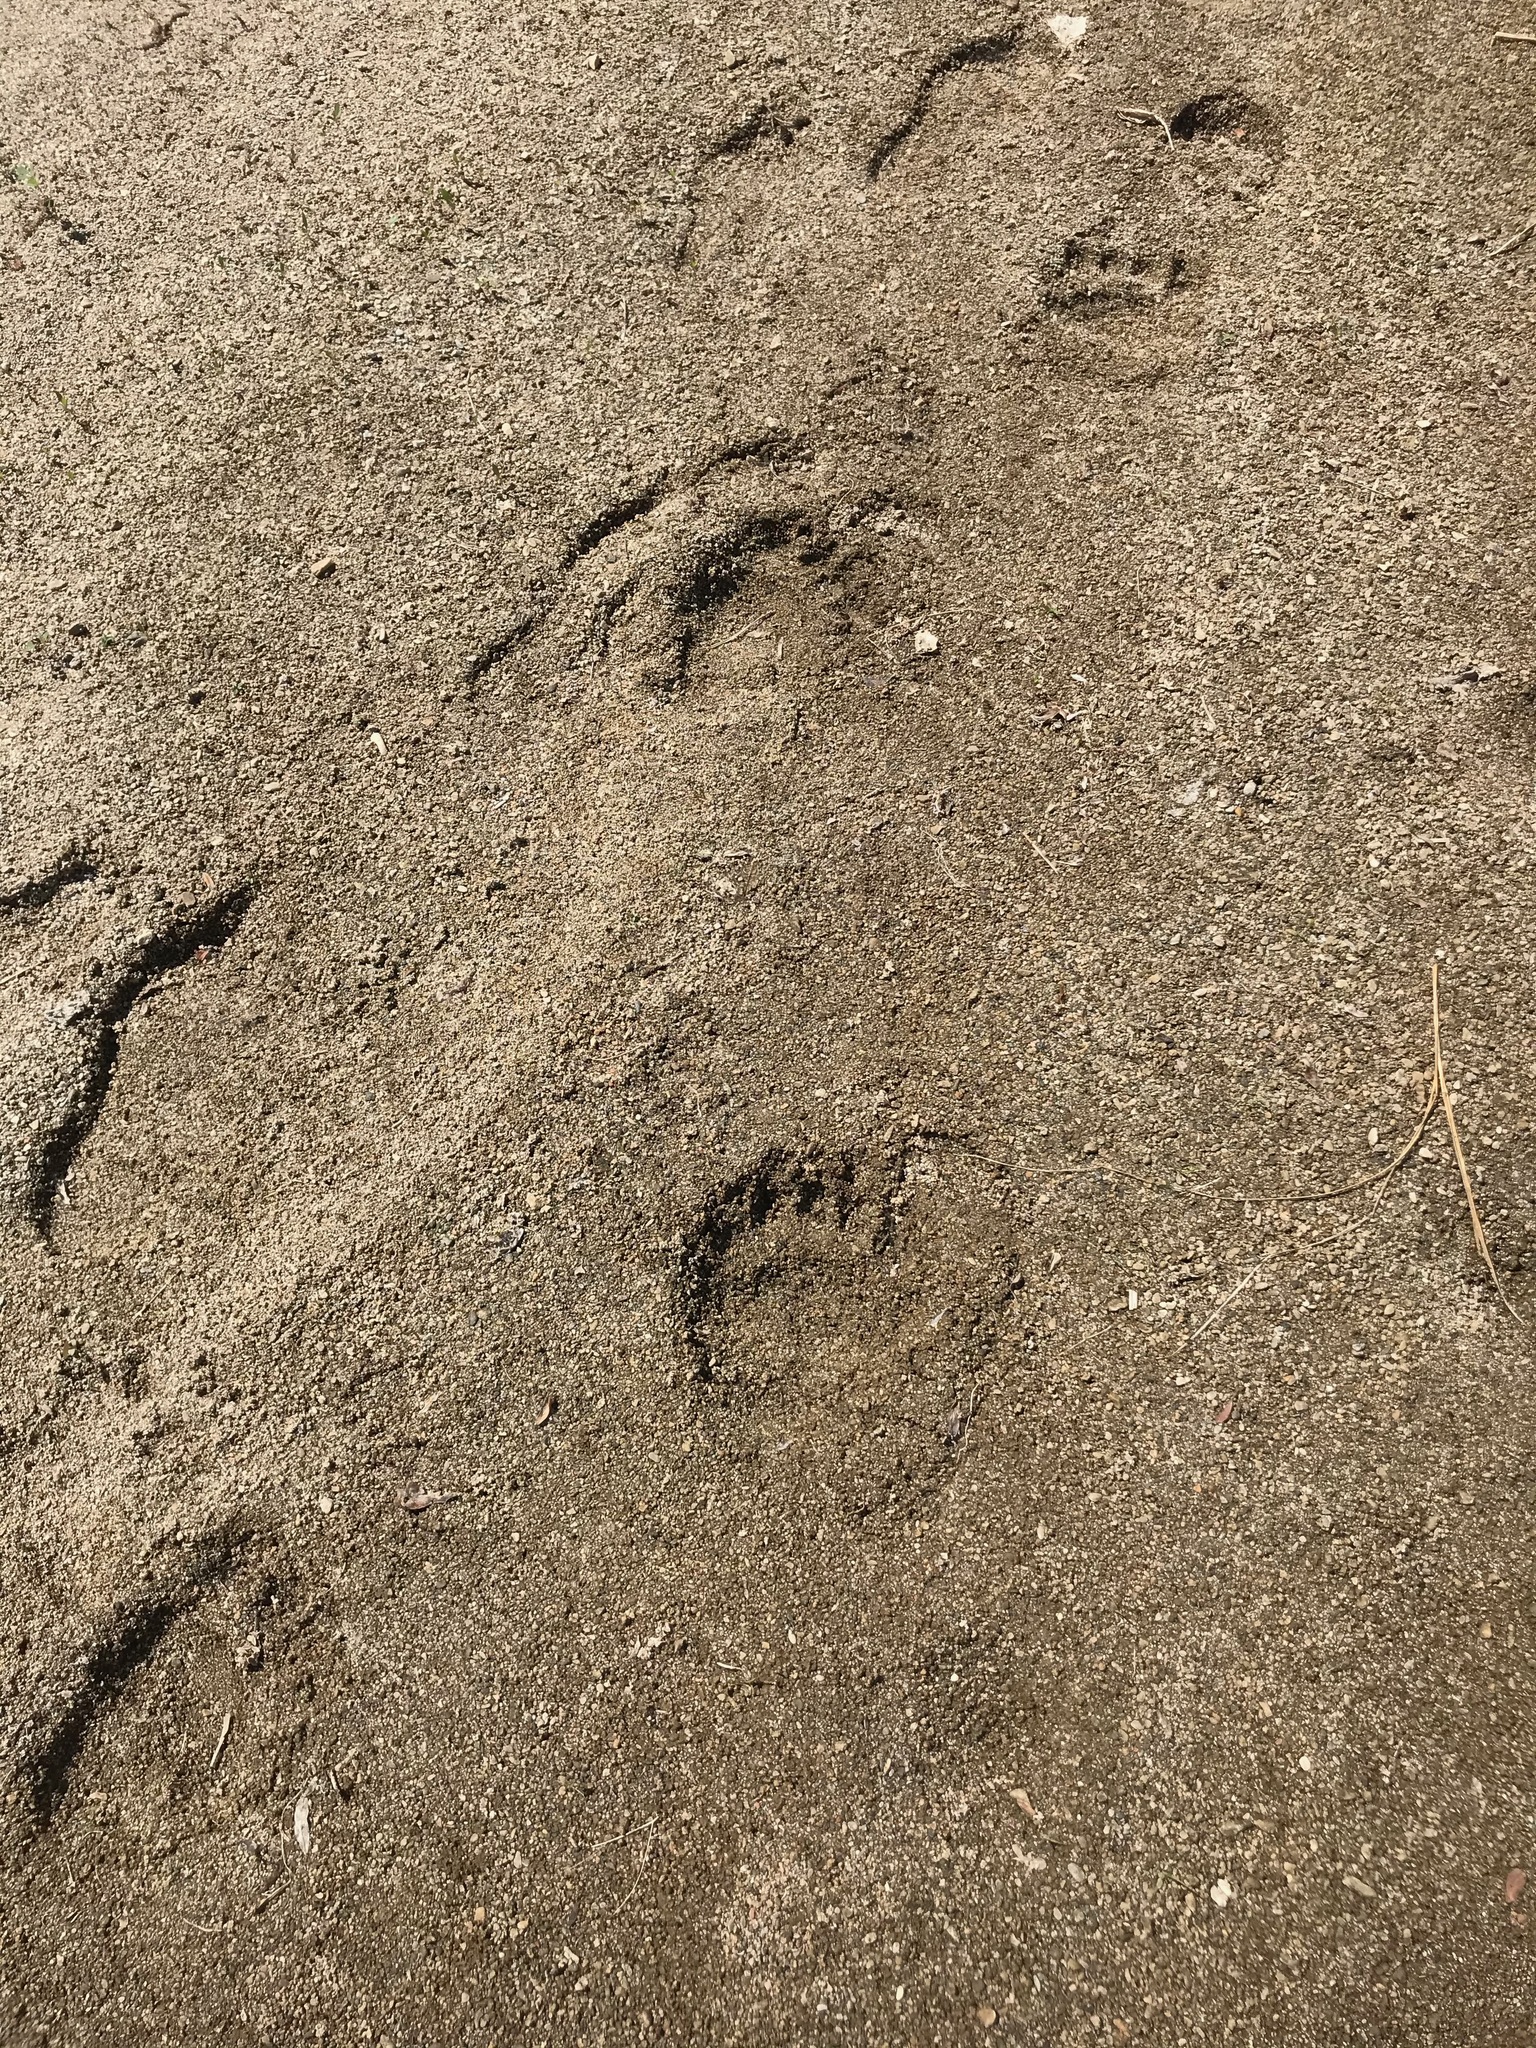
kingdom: Animalia
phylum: Chordata
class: Mammalia
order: Carnivora
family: Ursidae
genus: Ursus
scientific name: Ursus americanus
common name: American black bear
